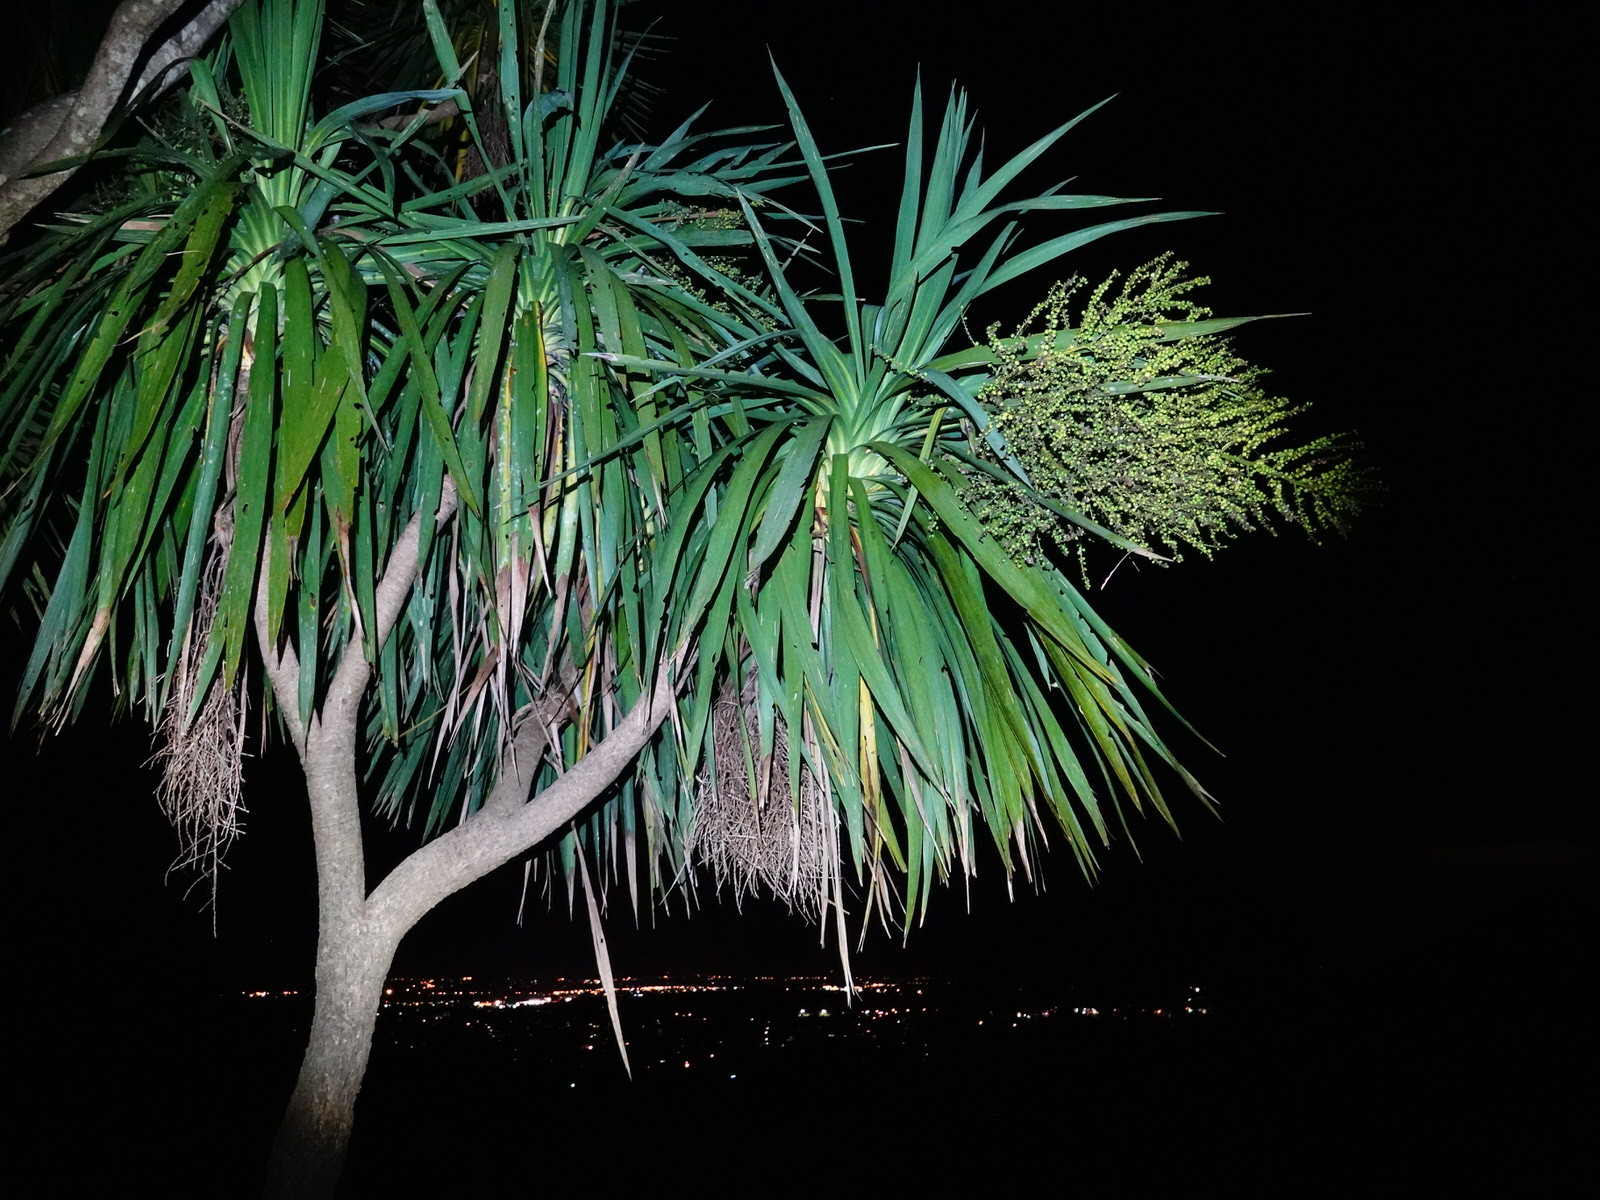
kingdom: Plantae
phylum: Tracheophyta
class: Liliopsida
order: Asparagales
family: Asparagaceae
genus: Cordyline
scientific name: Cordyline australis
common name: Cabbage-palm
